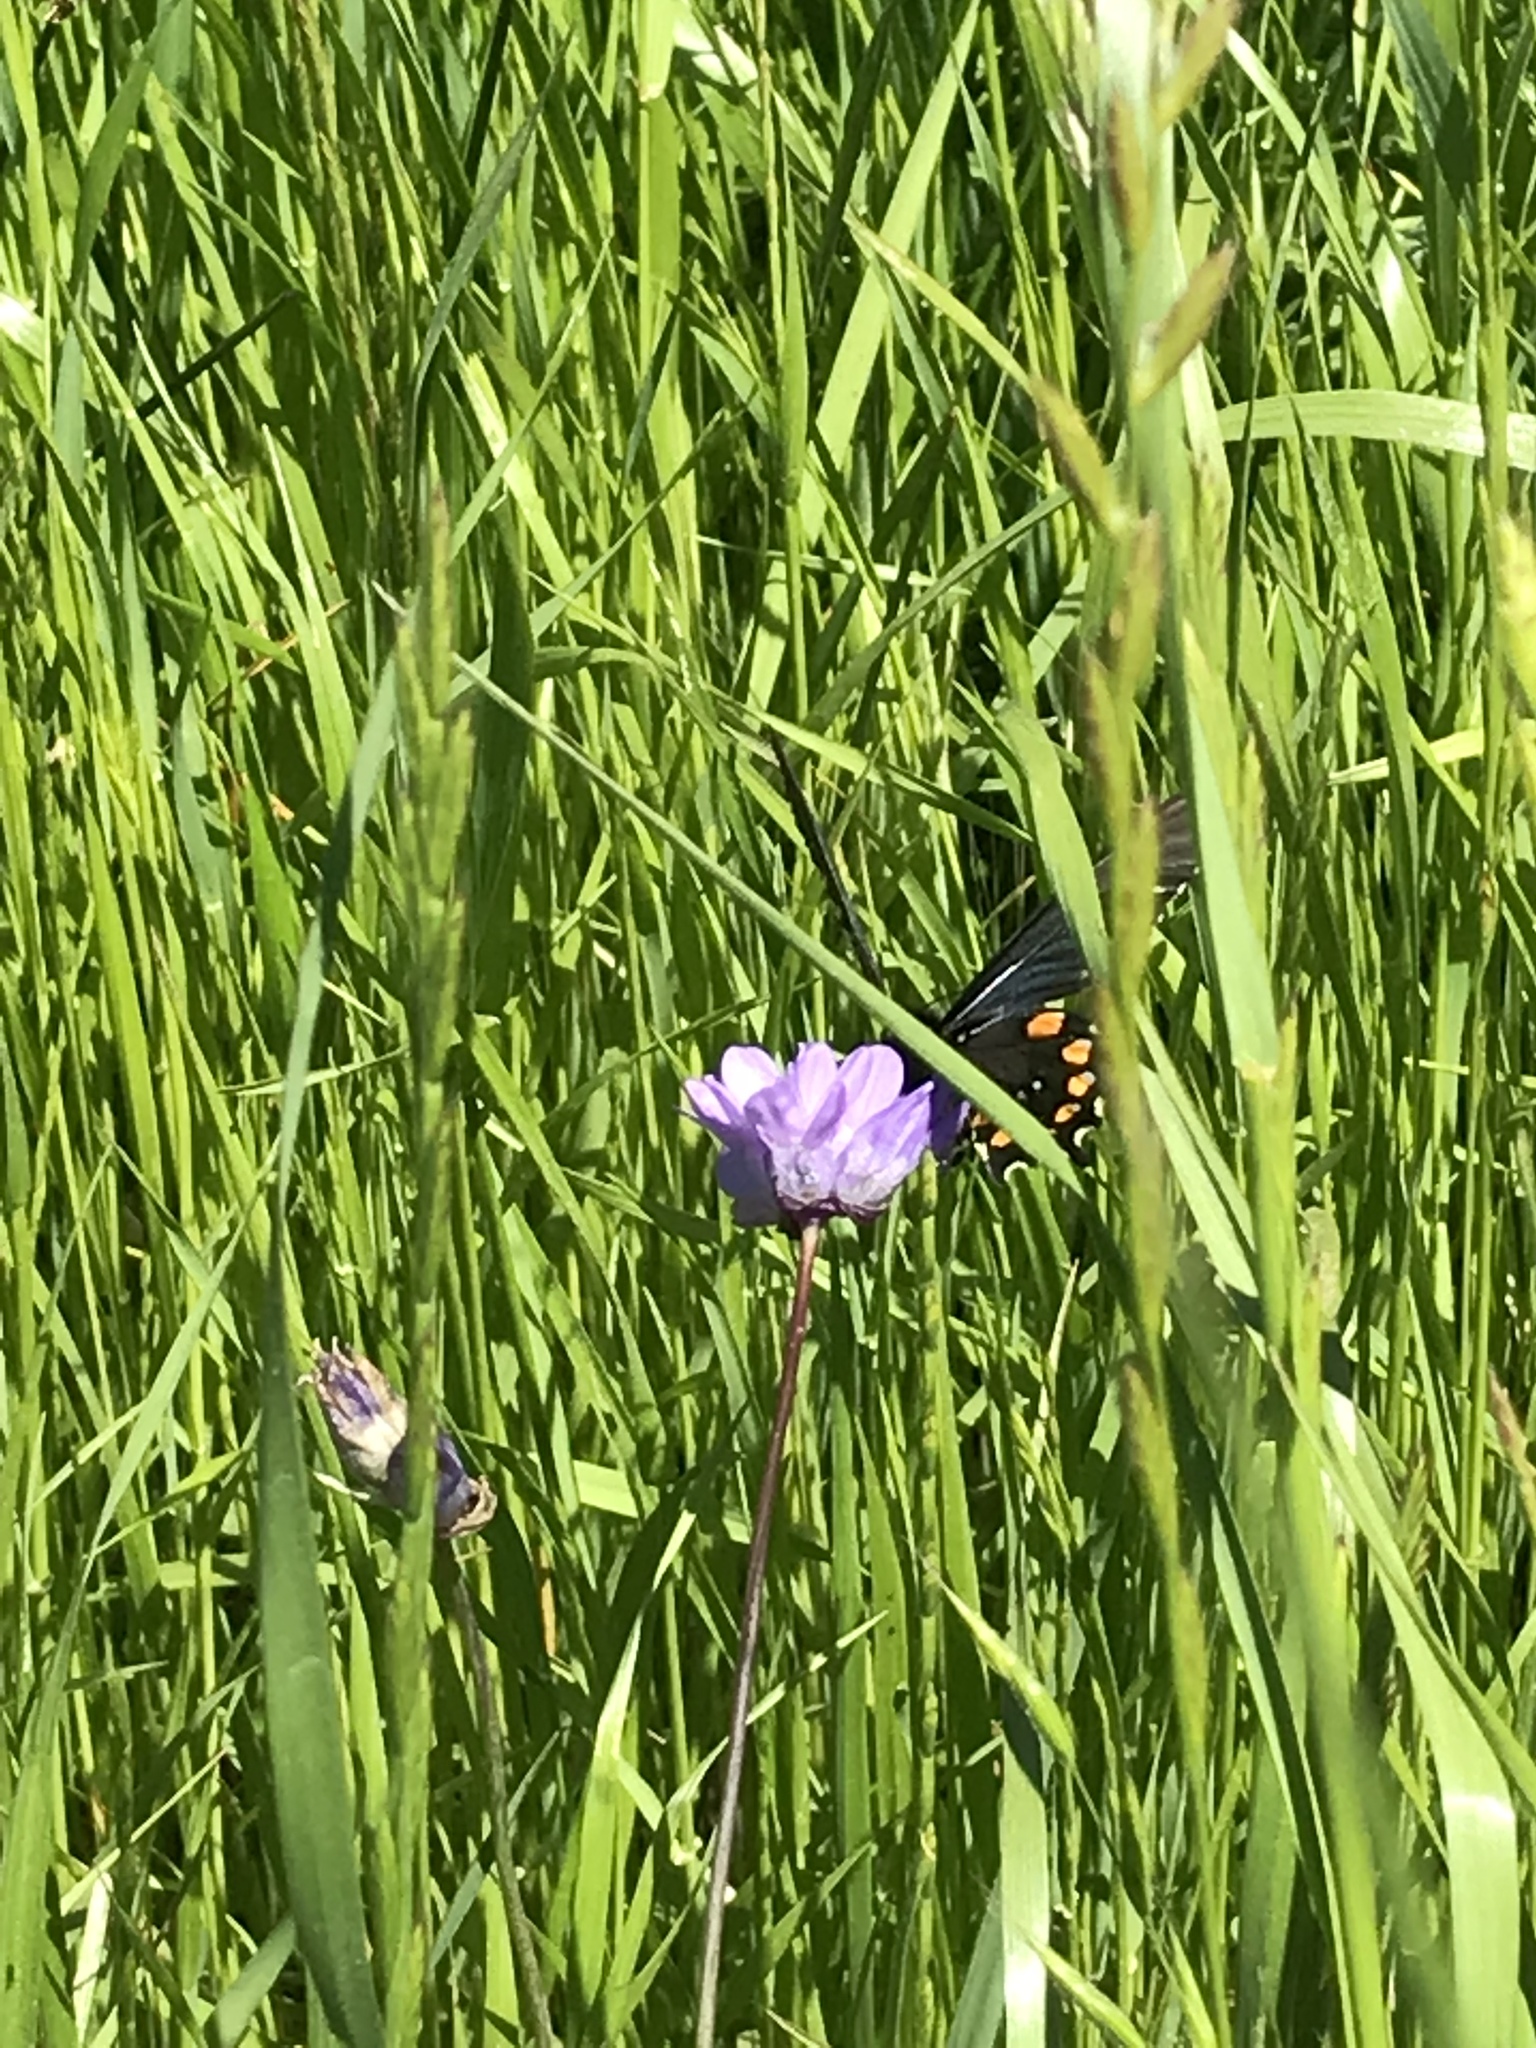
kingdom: Animalia
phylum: Arthropoda
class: Insecta
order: Lepidoptera
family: Papilionidae
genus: Battus
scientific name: Battus philenor
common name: Pipevine swallowtail
